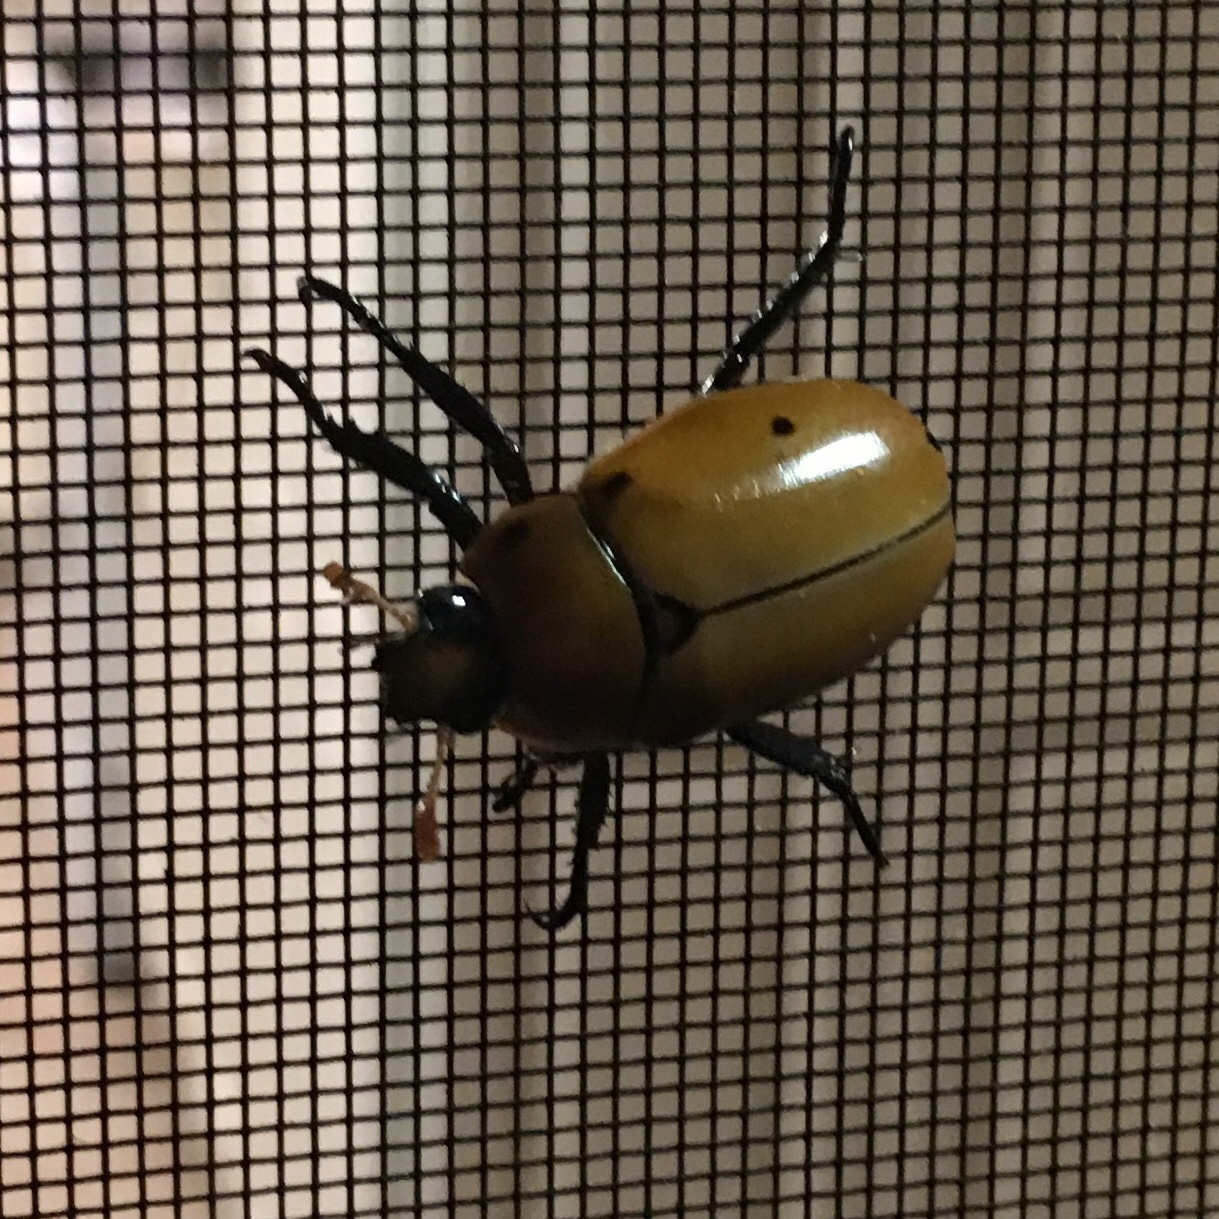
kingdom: Animalia
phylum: Arthropoda
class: Insecta
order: Coleoptera
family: Scarabaeidae
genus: Pelidnota
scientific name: Pelidnota punctata
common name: Grapevine beetle
